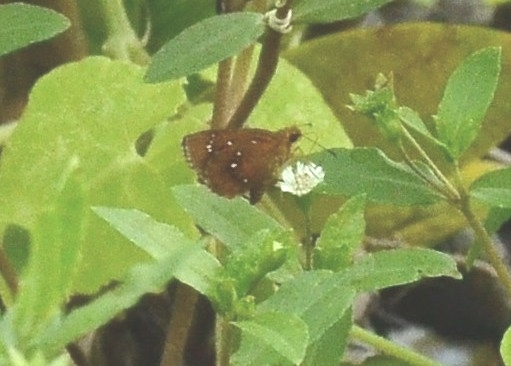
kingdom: Animalia
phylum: Arthropoda
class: Insecta
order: Lepidoptera
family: Hesperiidae
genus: Iambrix
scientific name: Iambrix salsala
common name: Chestnut bob
